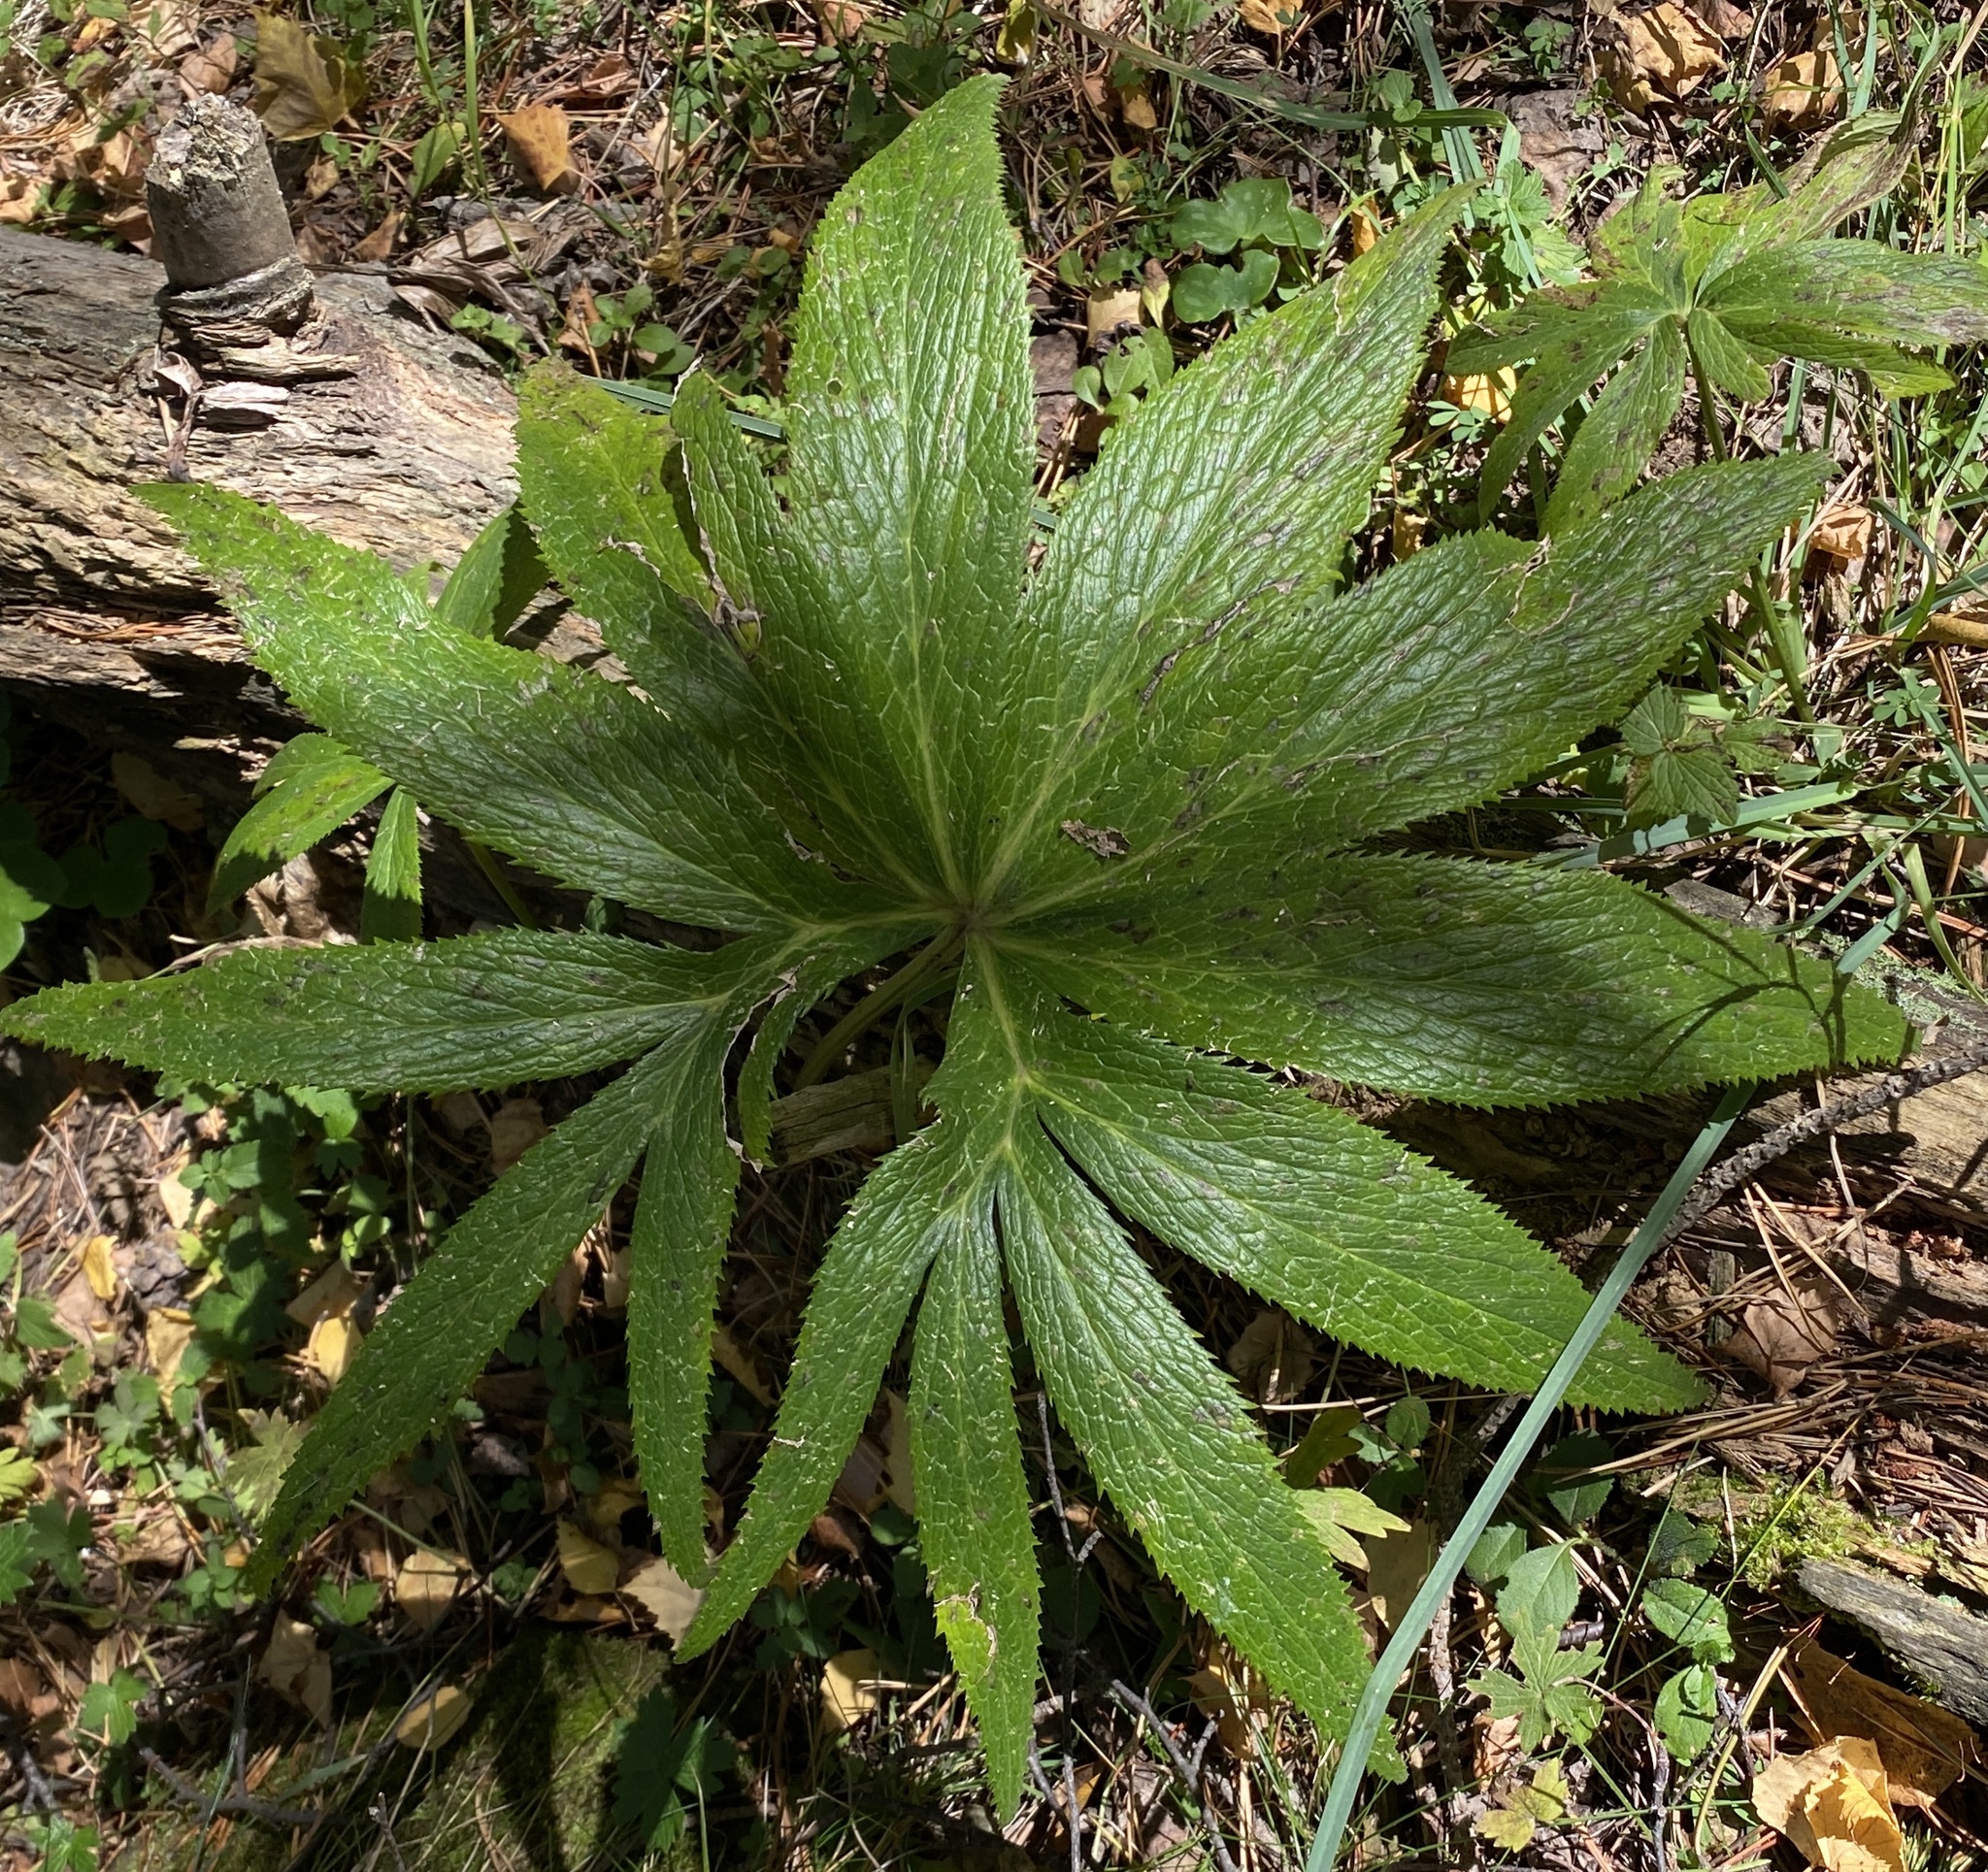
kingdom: Plantae
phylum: Tracheophyta
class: Magnoliopsida
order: Ranunculales
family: Ranunculaceae
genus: Helleborus
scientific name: Helleborus viridis
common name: Green hellebore
